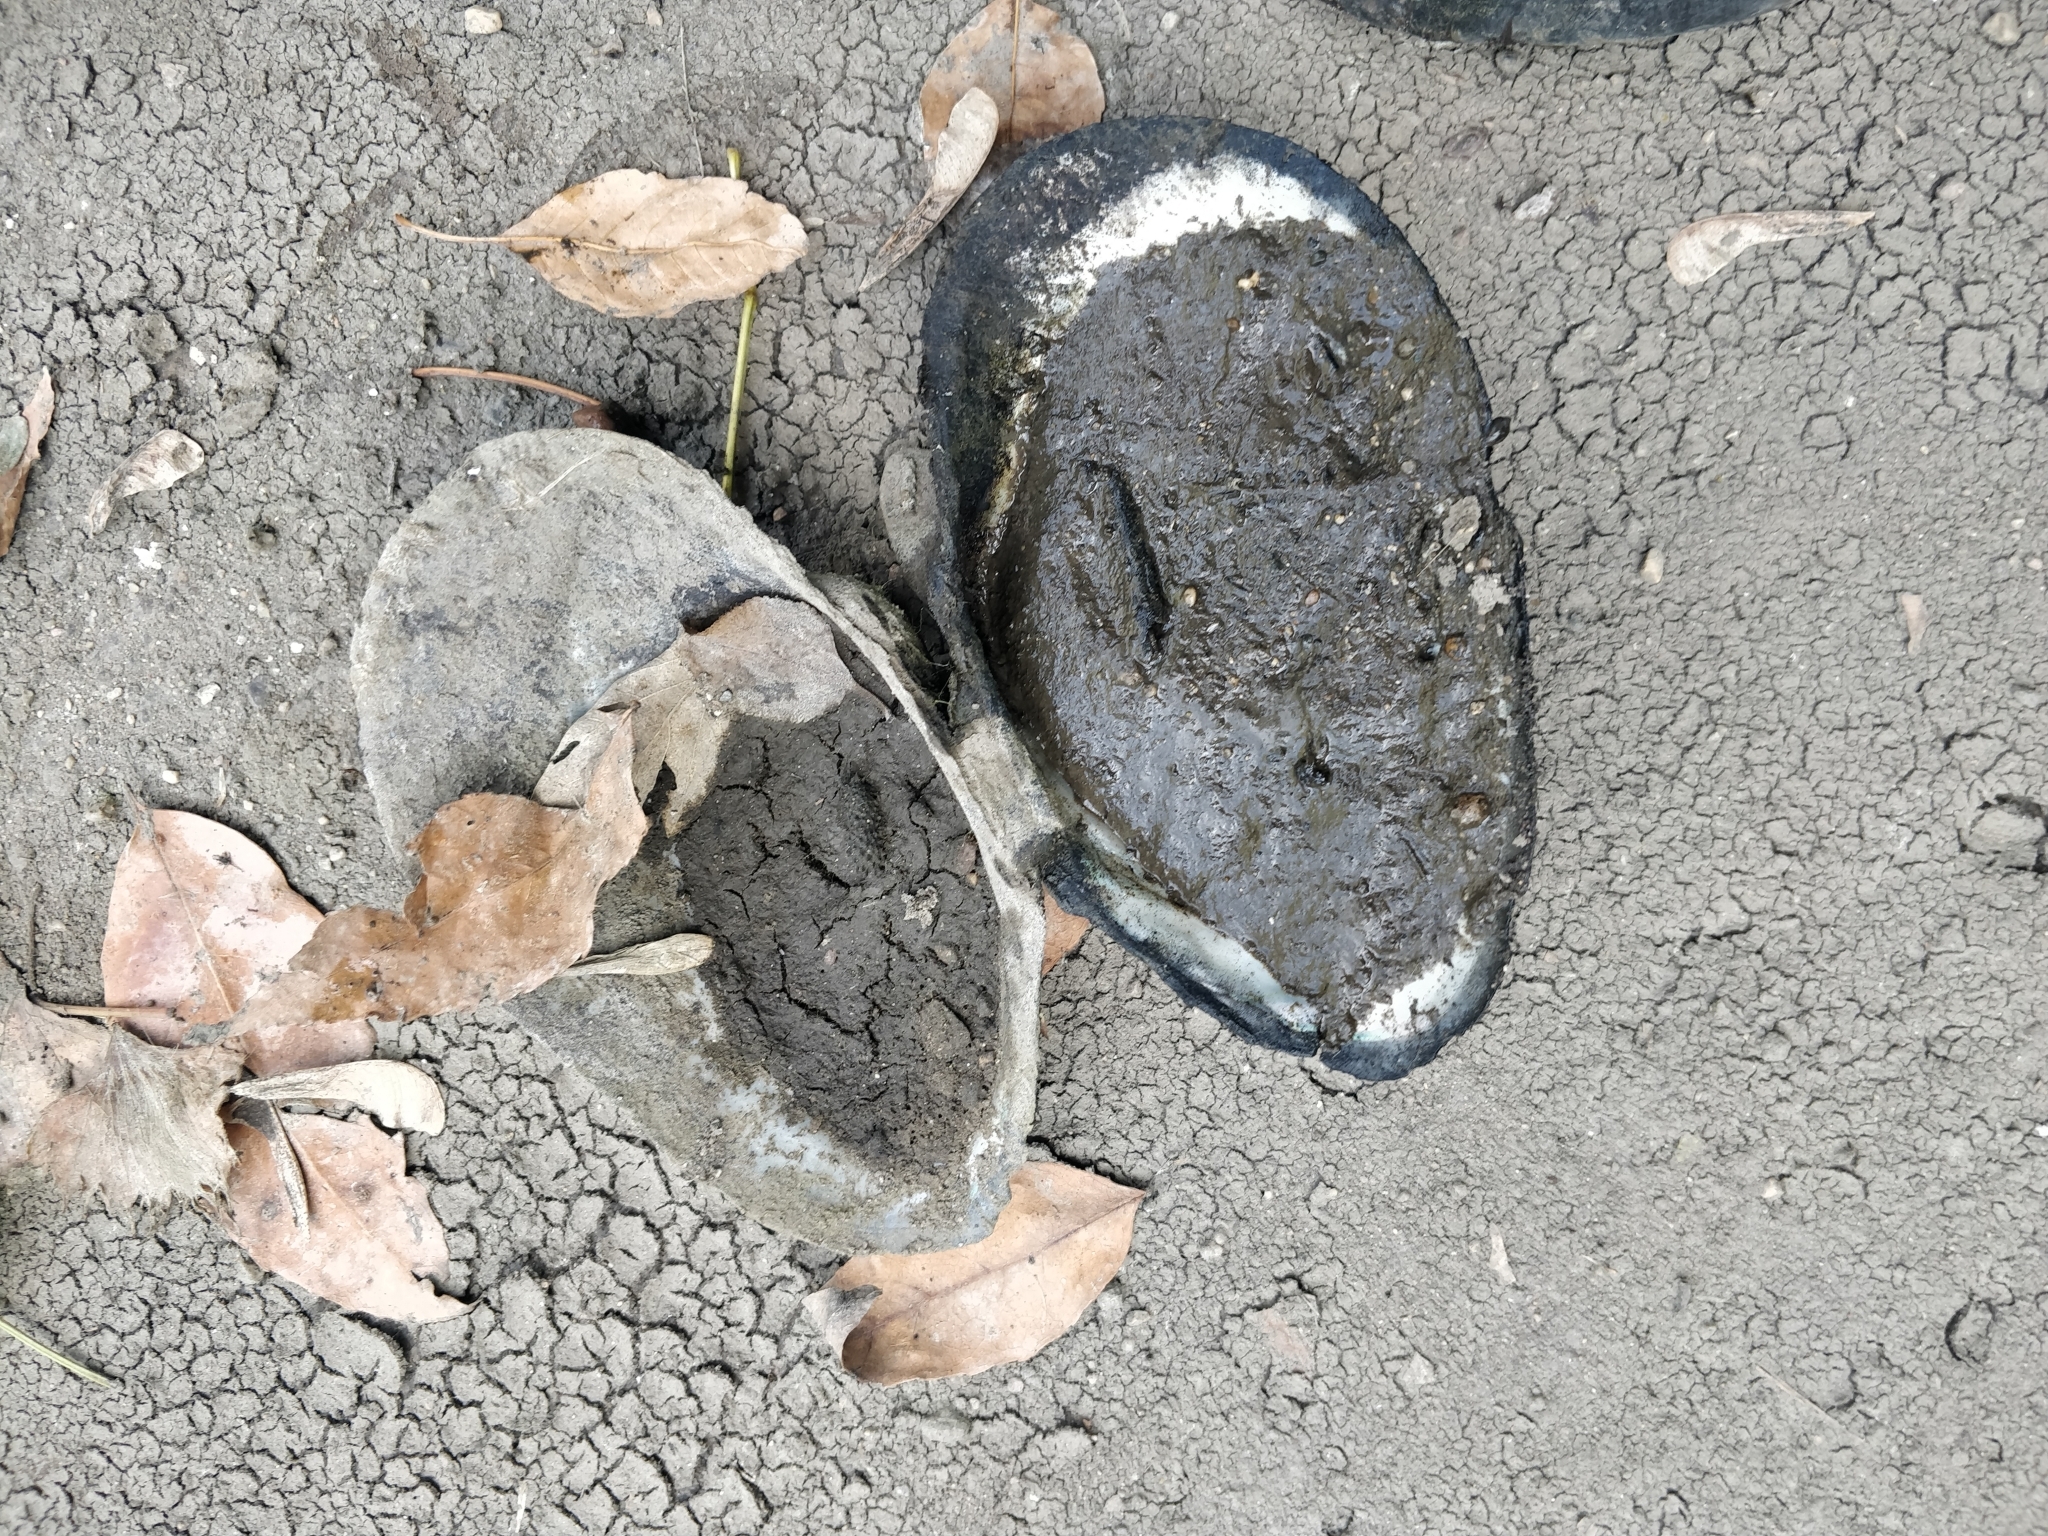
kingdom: Animalia
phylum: Mollusca
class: Bivalvia
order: Unionida
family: Unionidae
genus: Pyganodon
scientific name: Pyganodon grandis
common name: Giant floater
